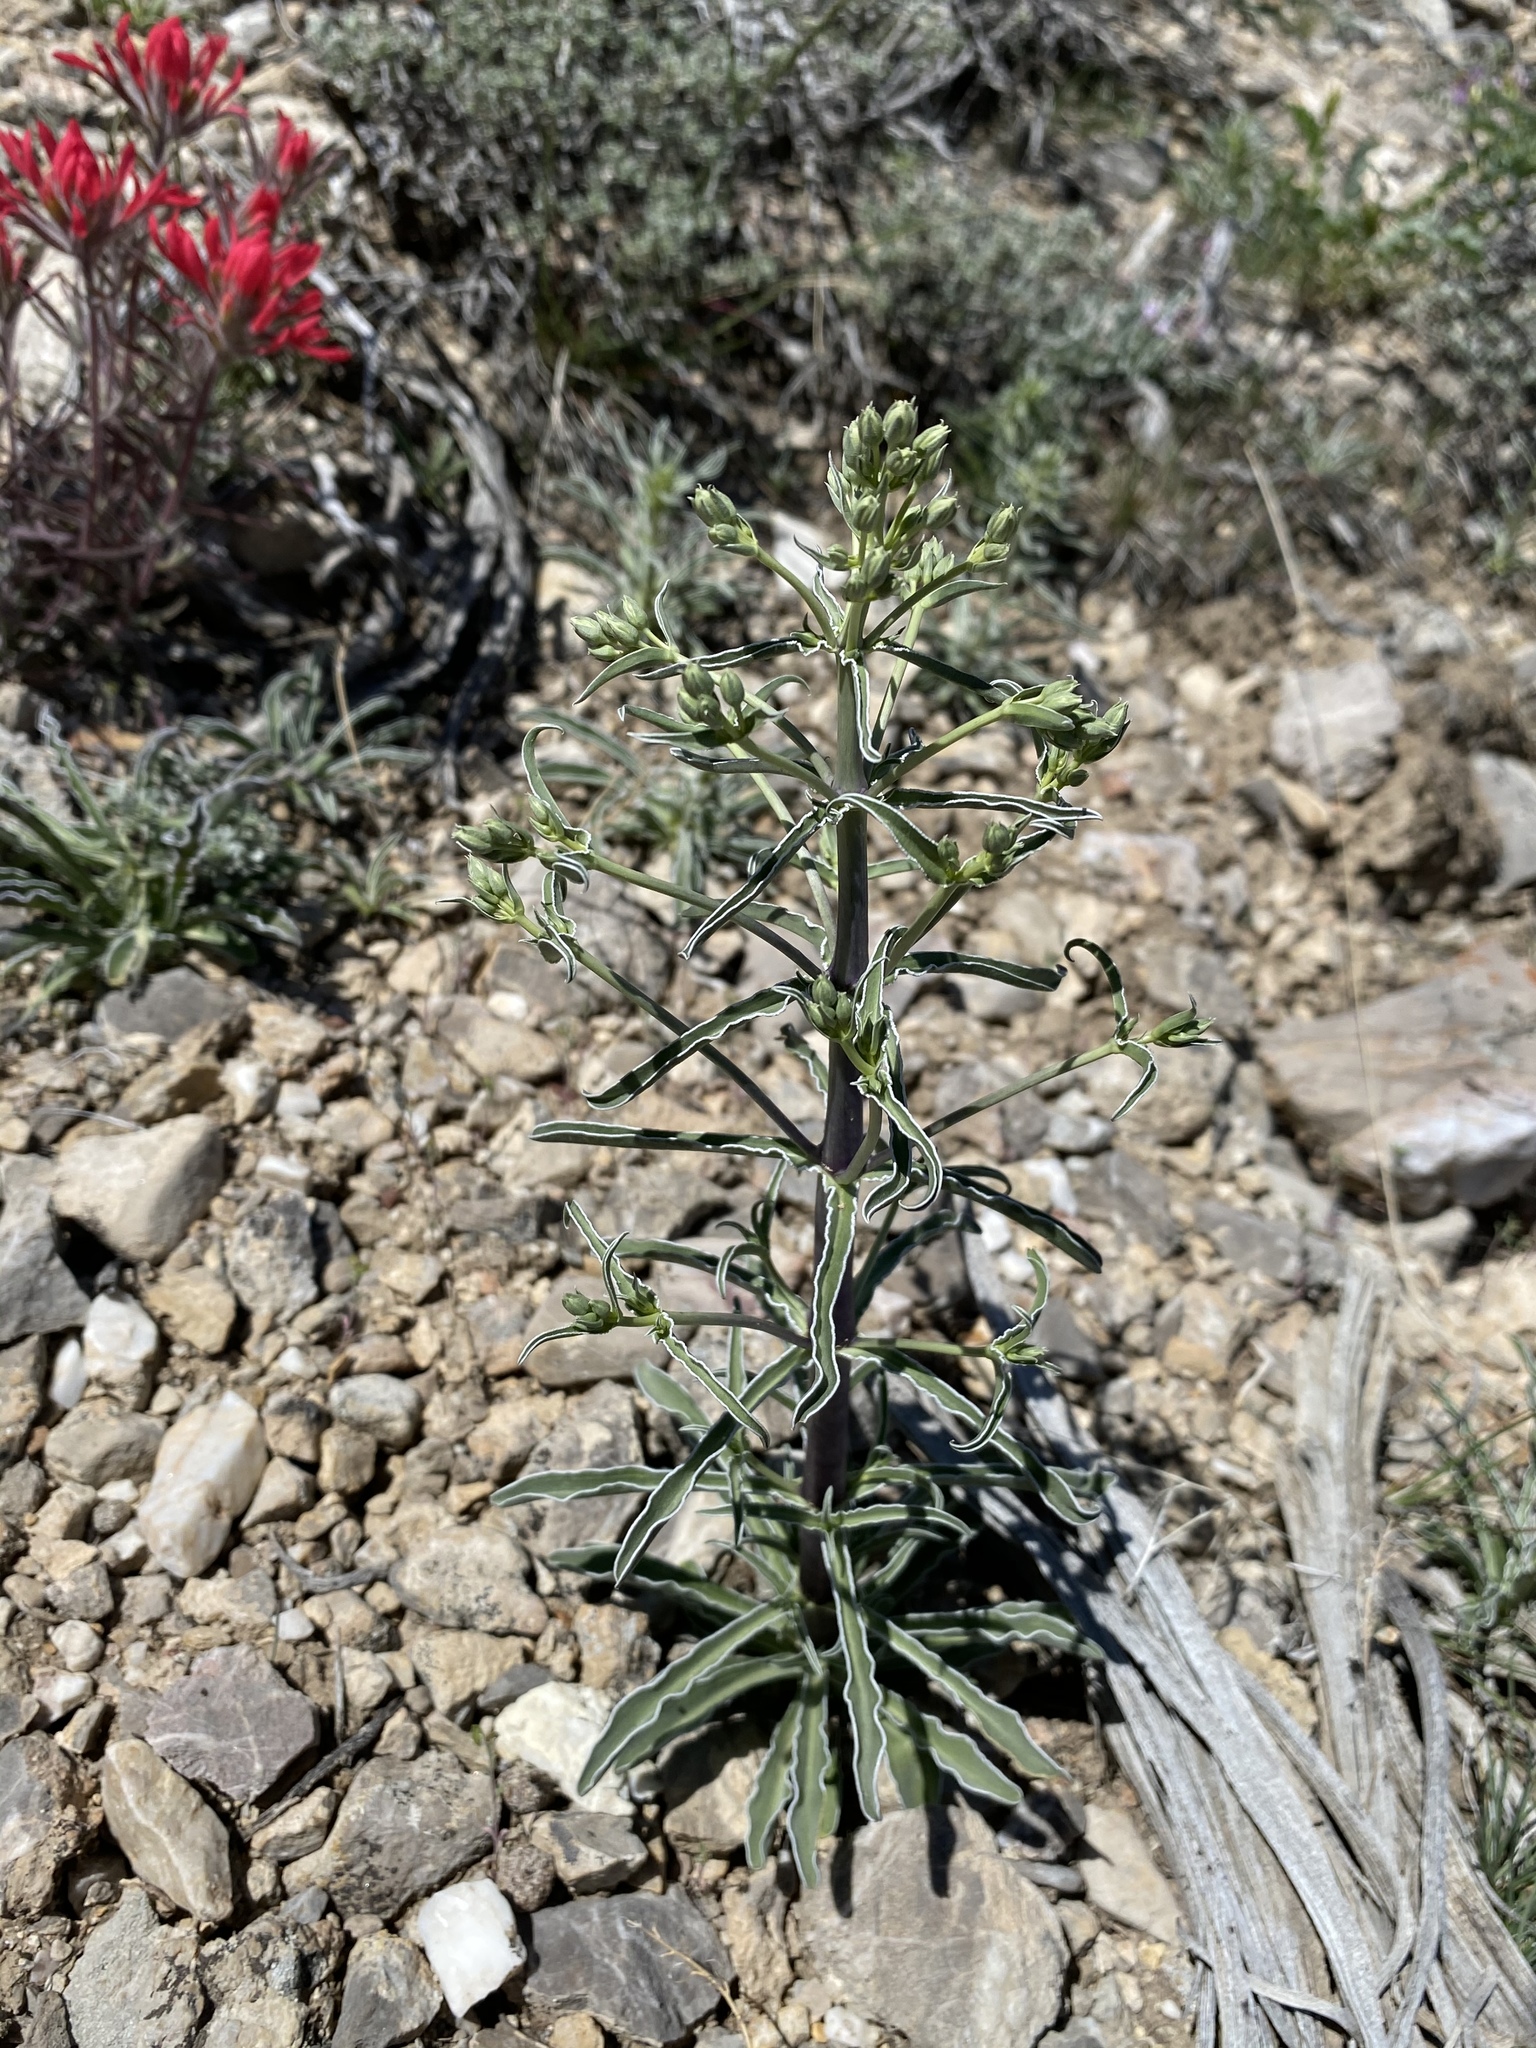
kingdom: Plantae
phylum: Tracheophyta
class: Magnoliopsida
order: Gentianales
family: Gentianaceae
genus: Frasera
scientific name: Frasera albomarginata
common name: Desert frasera
